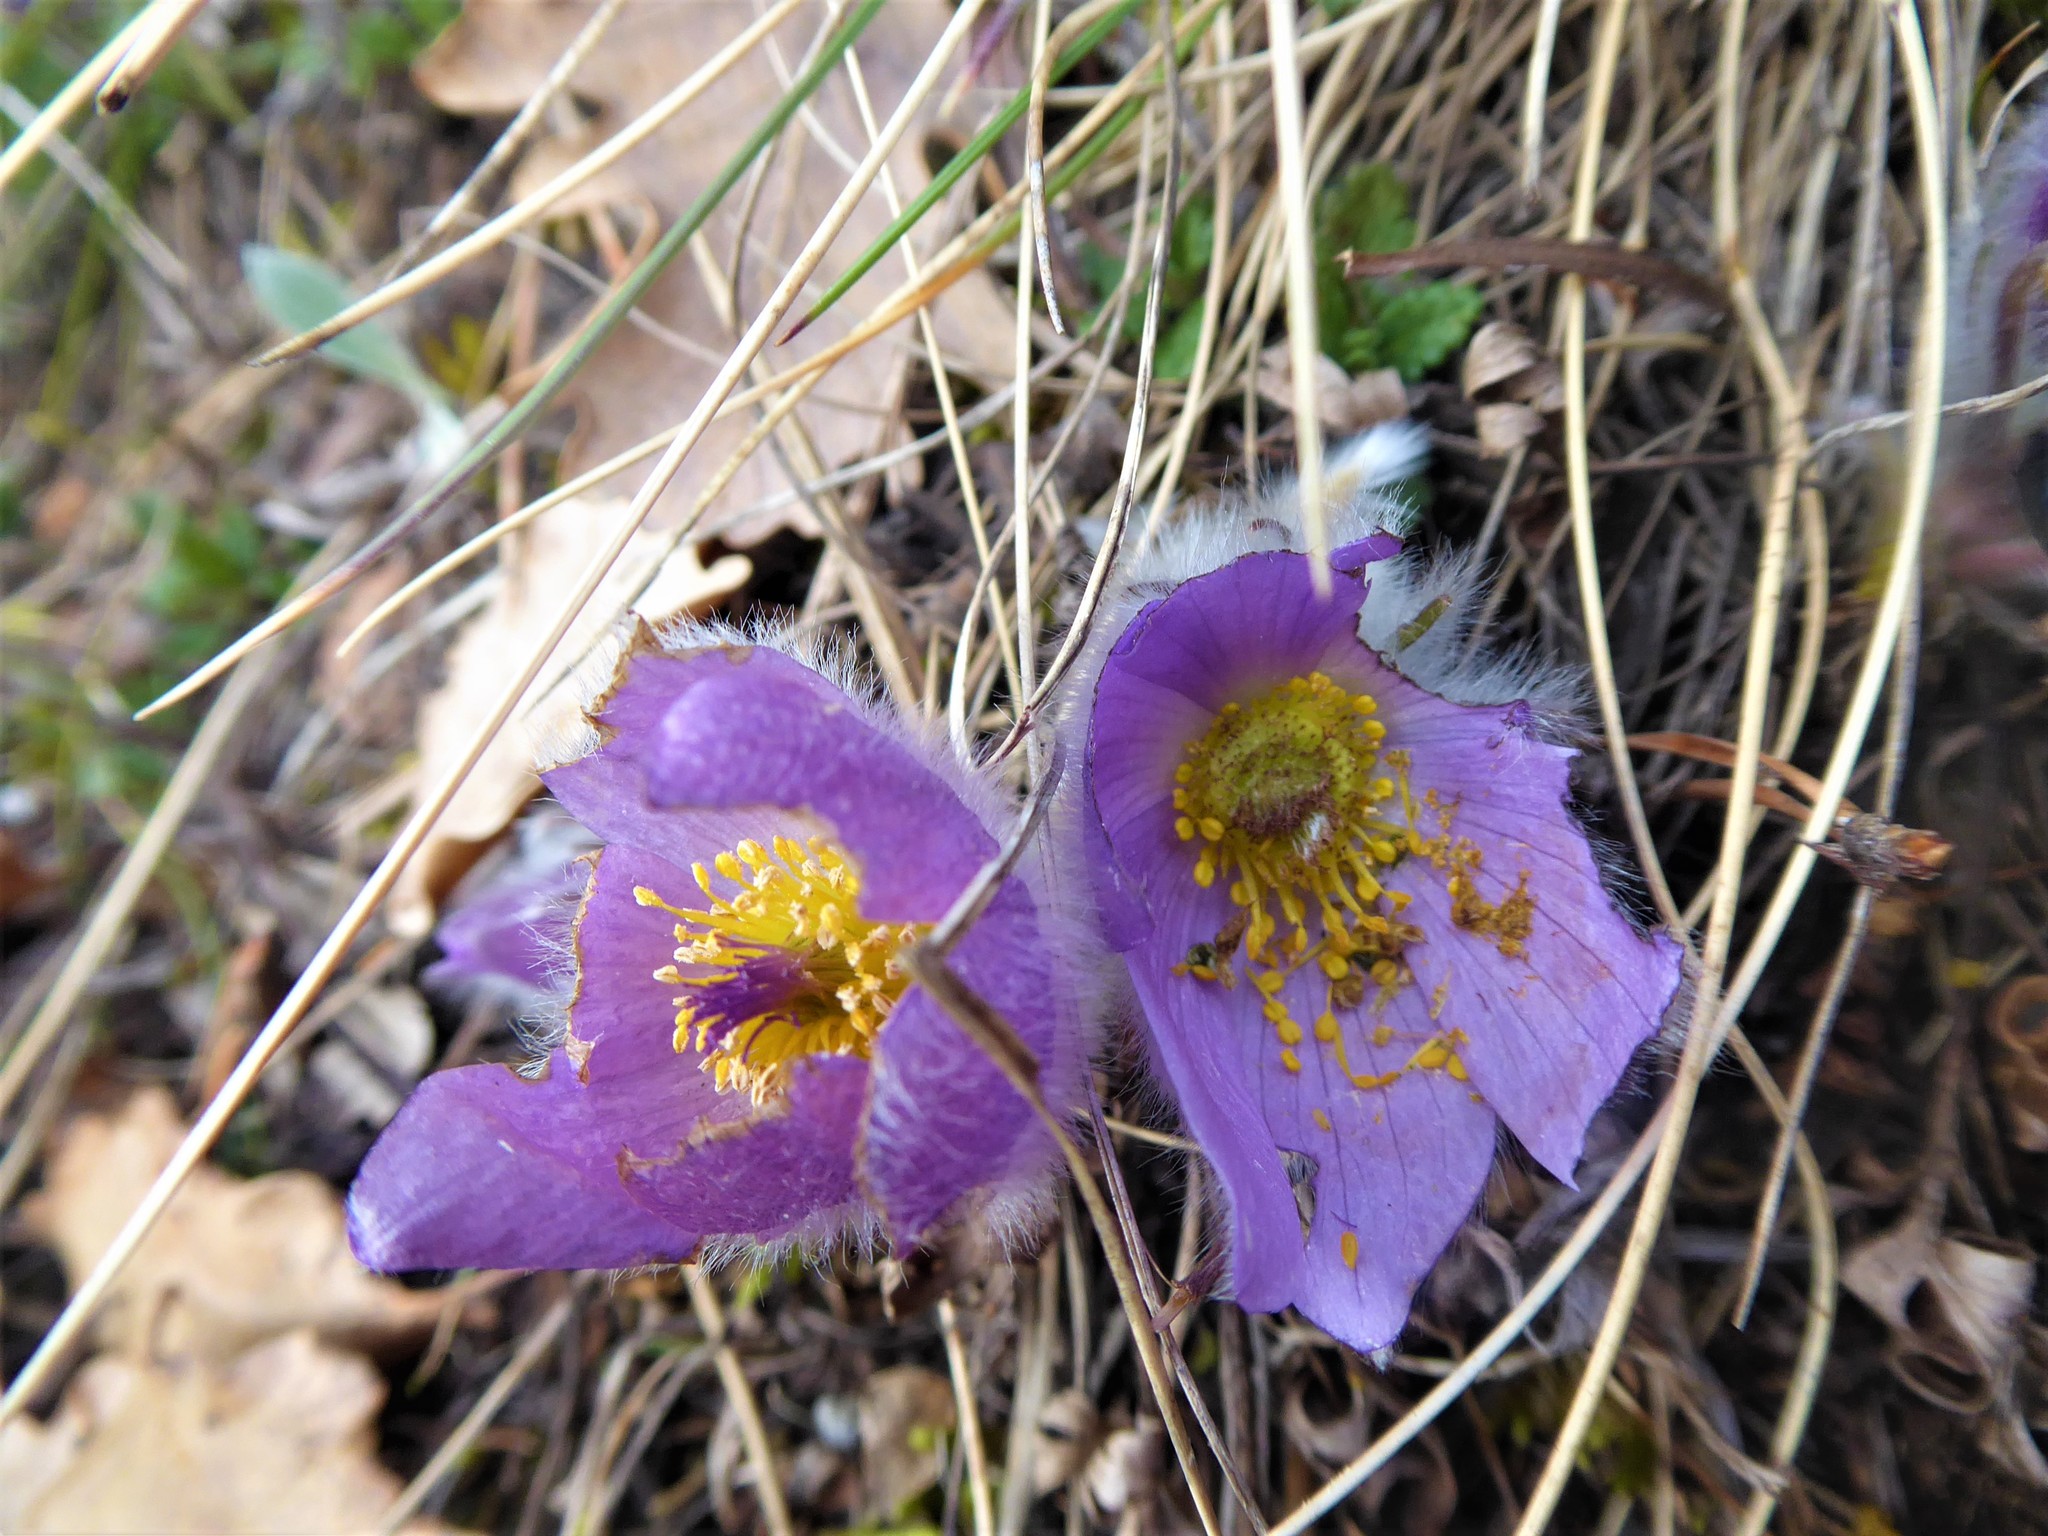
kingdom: Plantae
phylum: Tracheophyta
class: Magnoliopsida
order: Ranunculales
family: Ranunculaceae
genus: Pulsatilla
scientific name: Pulsatilla grandis
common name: Greater pasque flower
